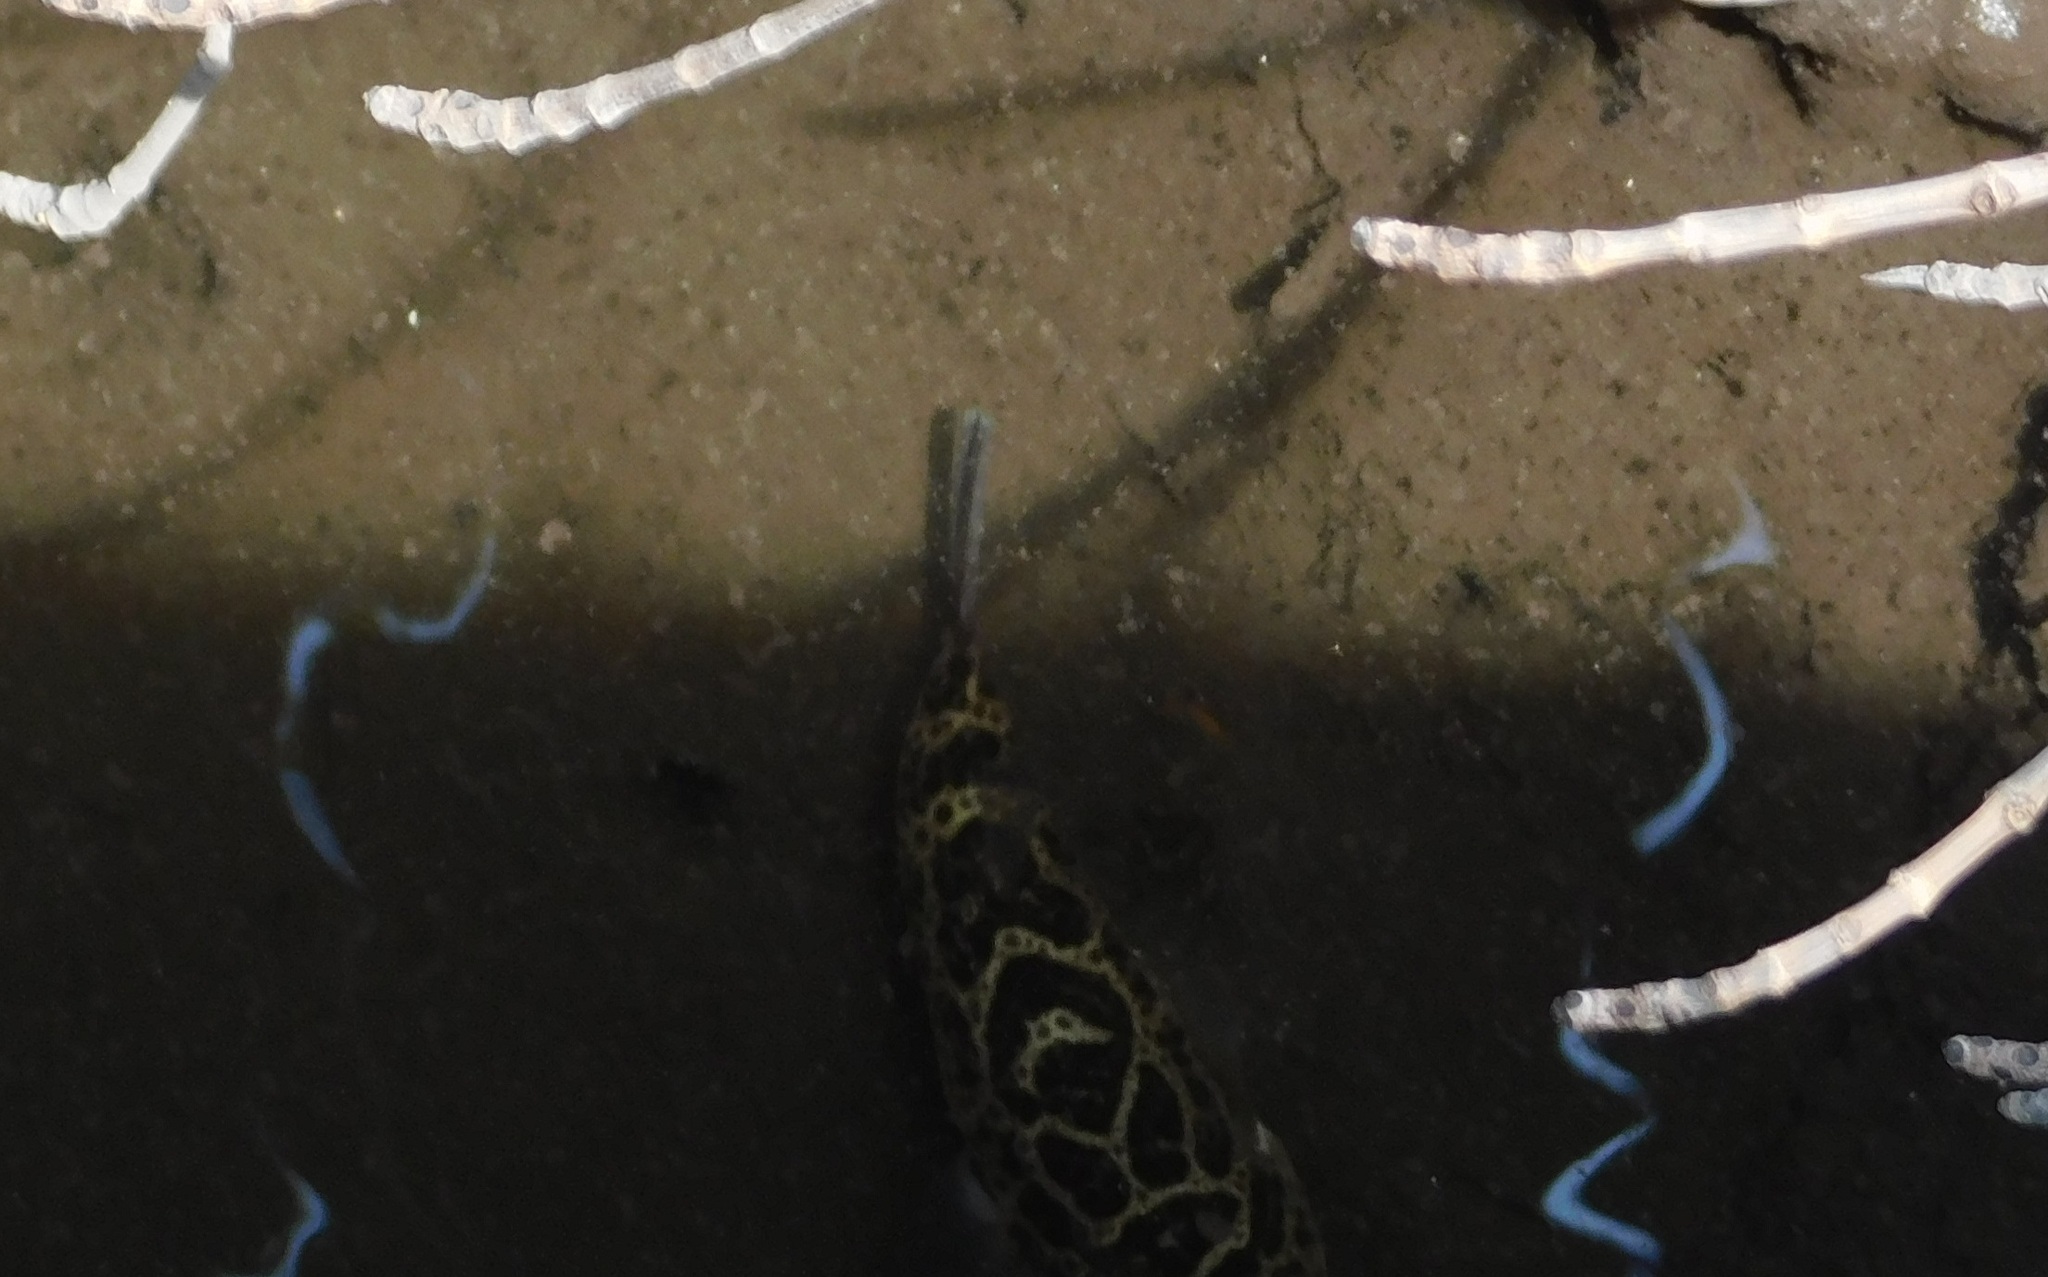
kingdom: Animalia
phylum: Chordata
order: Tetraodontiformes
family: Tetraodontidae
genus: Sphoeroides
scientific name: Sphoeroides testudineus
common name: Checkered puffer
